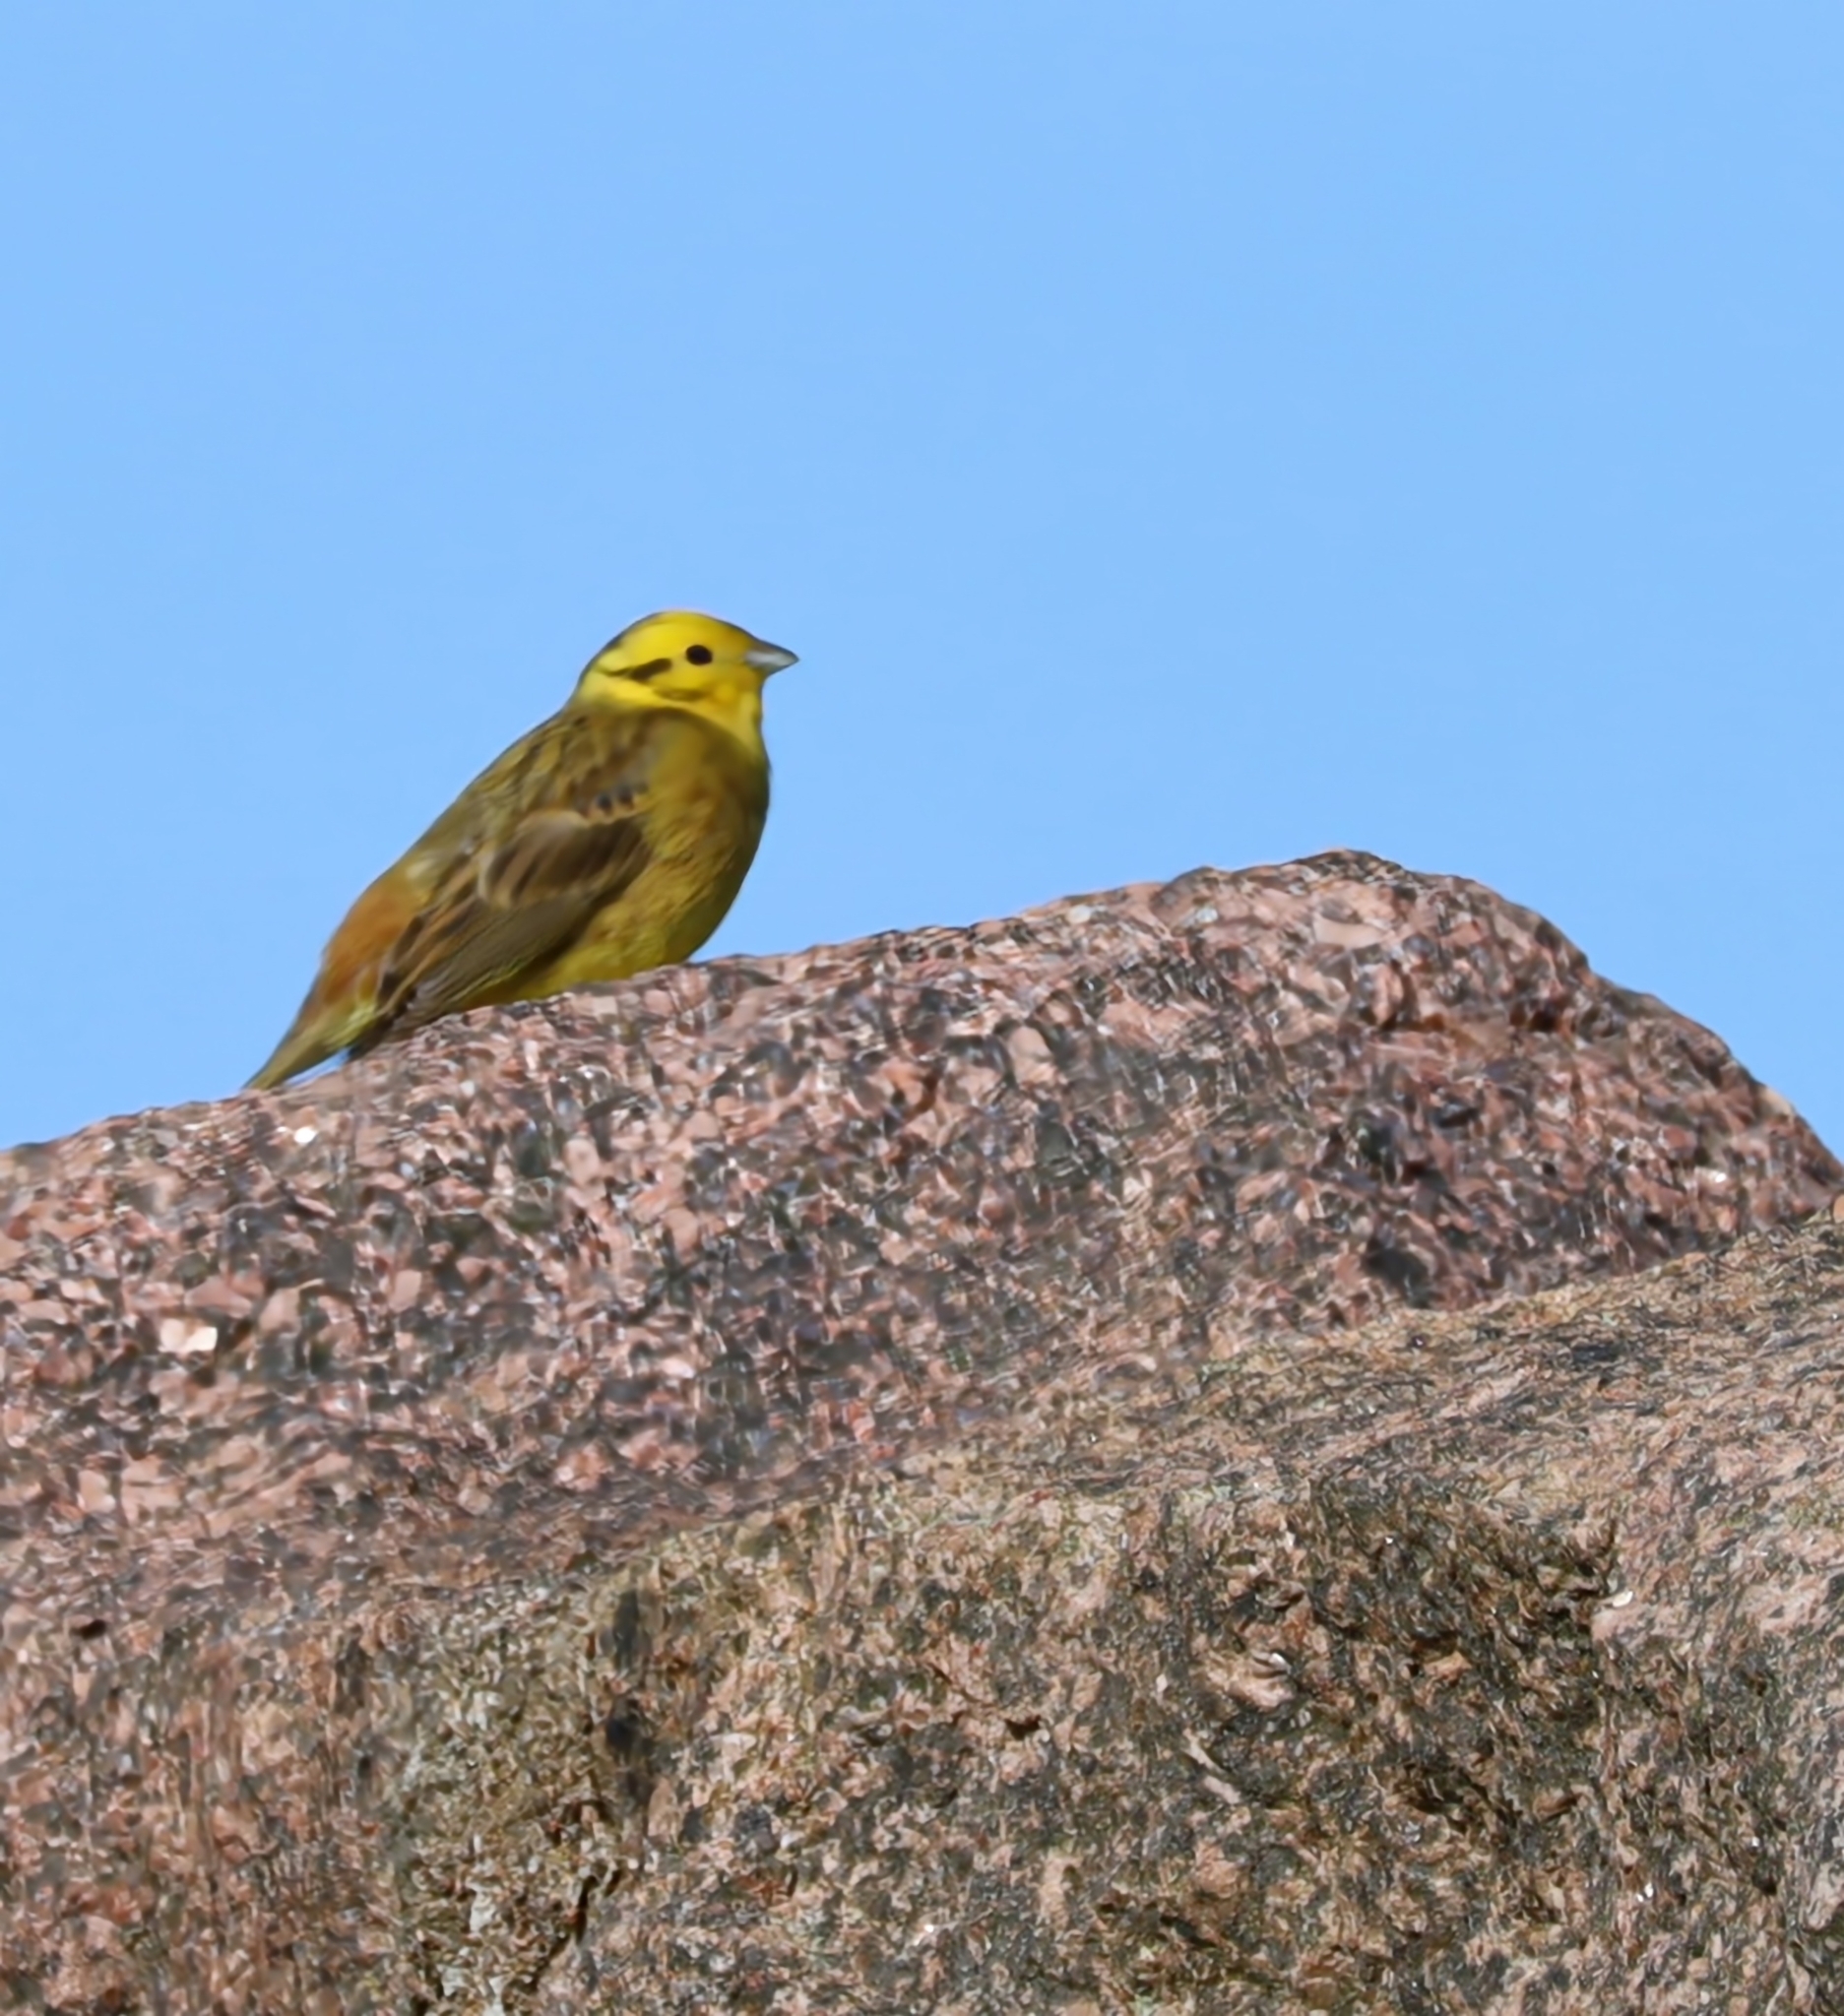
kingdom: Animalia
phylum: Chordata
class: Aves
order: Passeriformes
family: Emberizidae
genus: Emberiza
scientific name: Emberiza citrinella
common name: Yellowhammer
